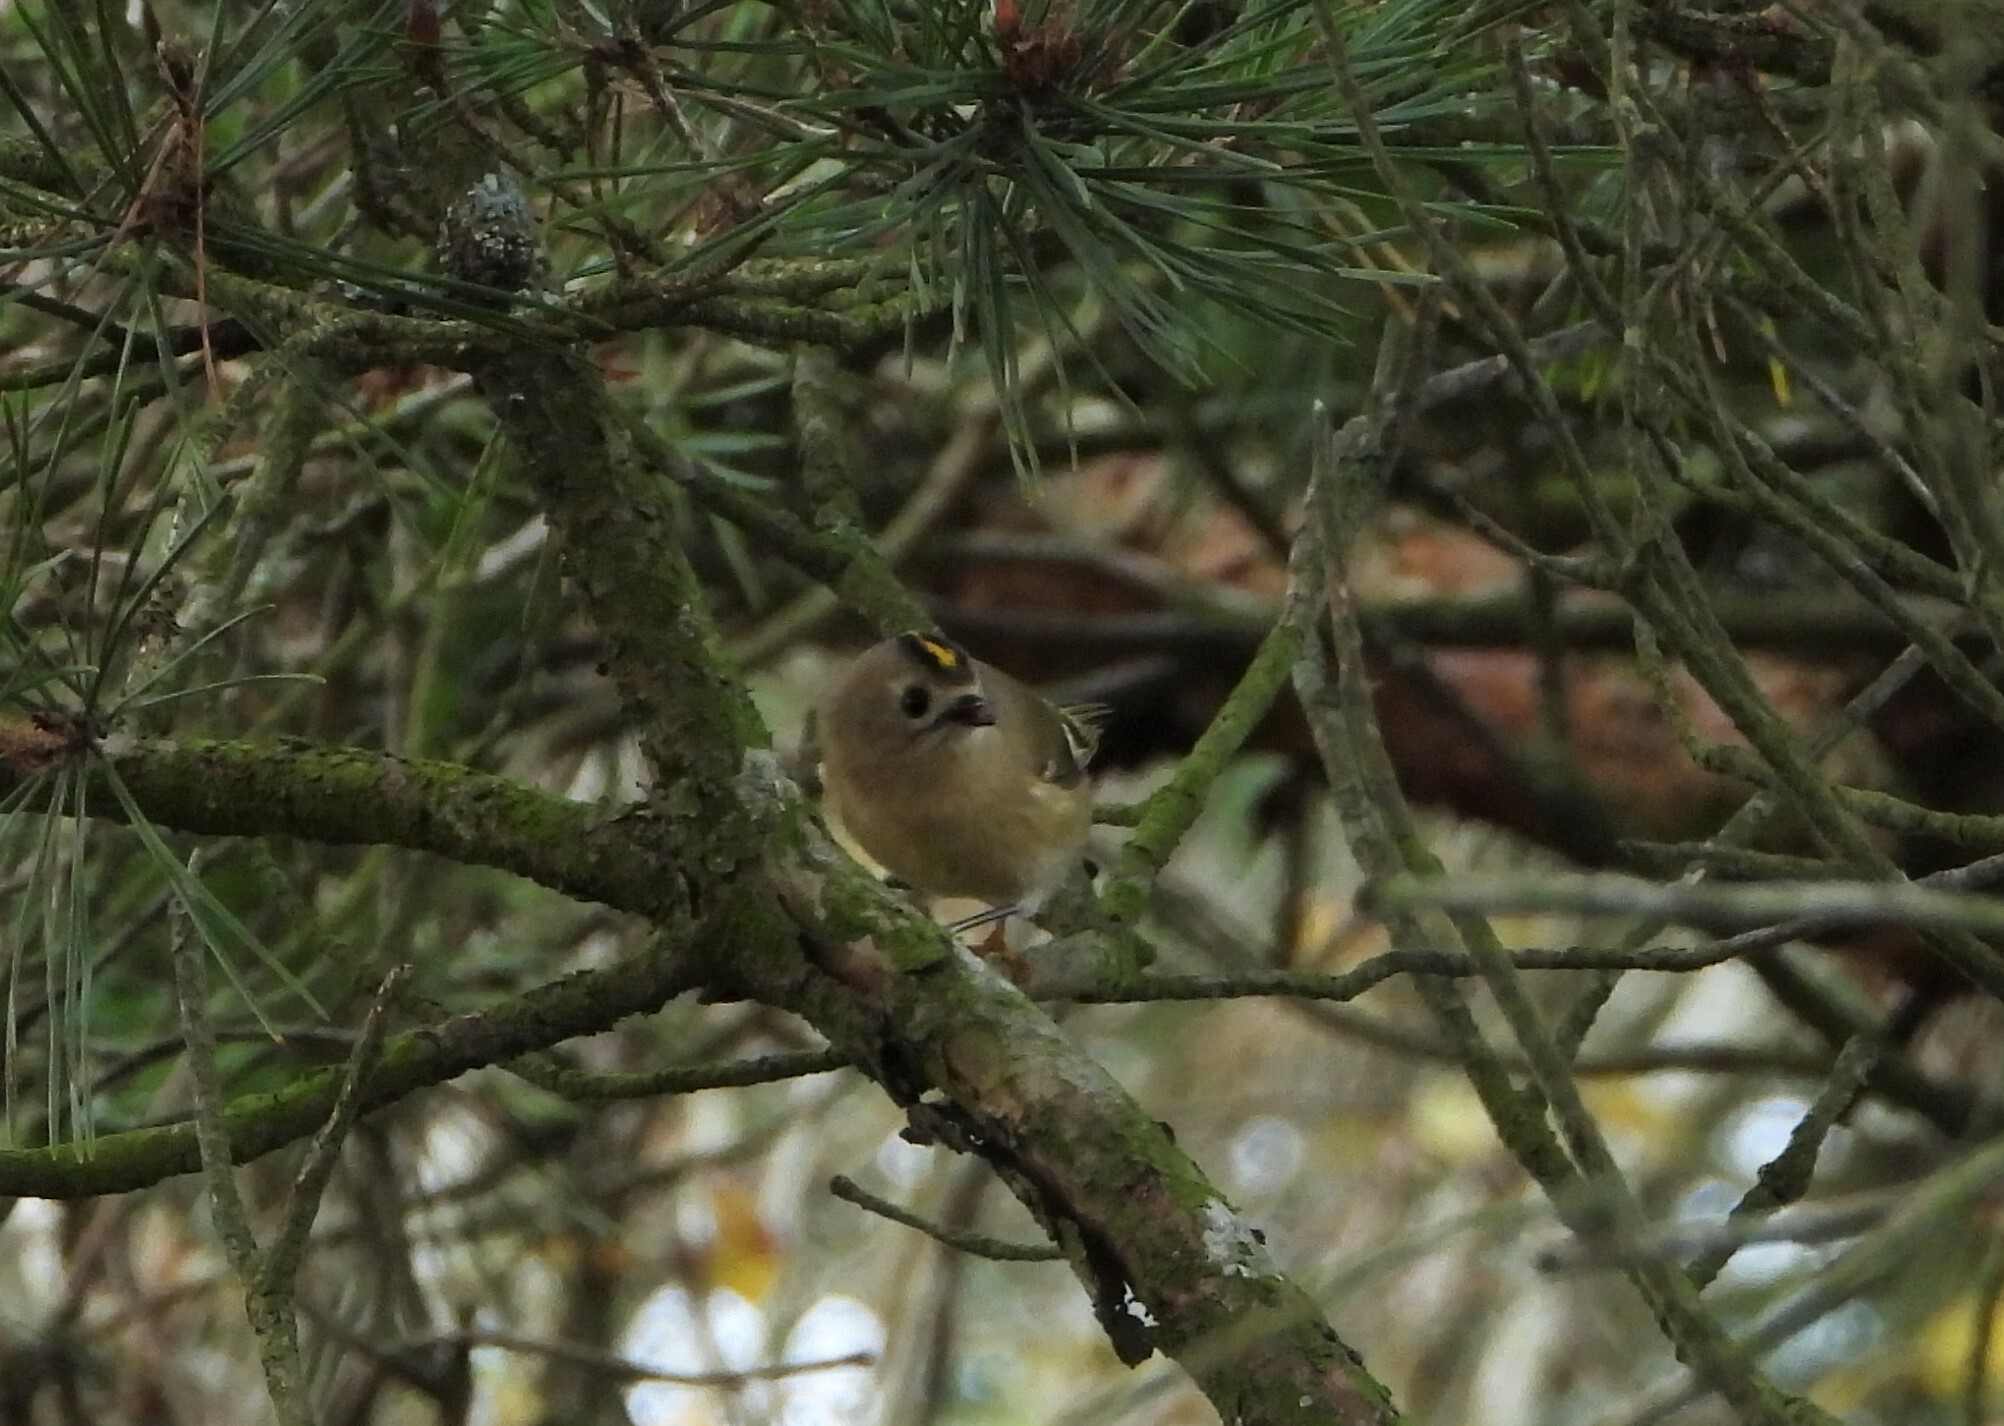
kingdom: Animalia
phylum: Chordata
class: Aves
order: Passeriformes
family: Regulidae
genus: Regulus
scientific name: Regulus regulus
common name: Goldcrest
